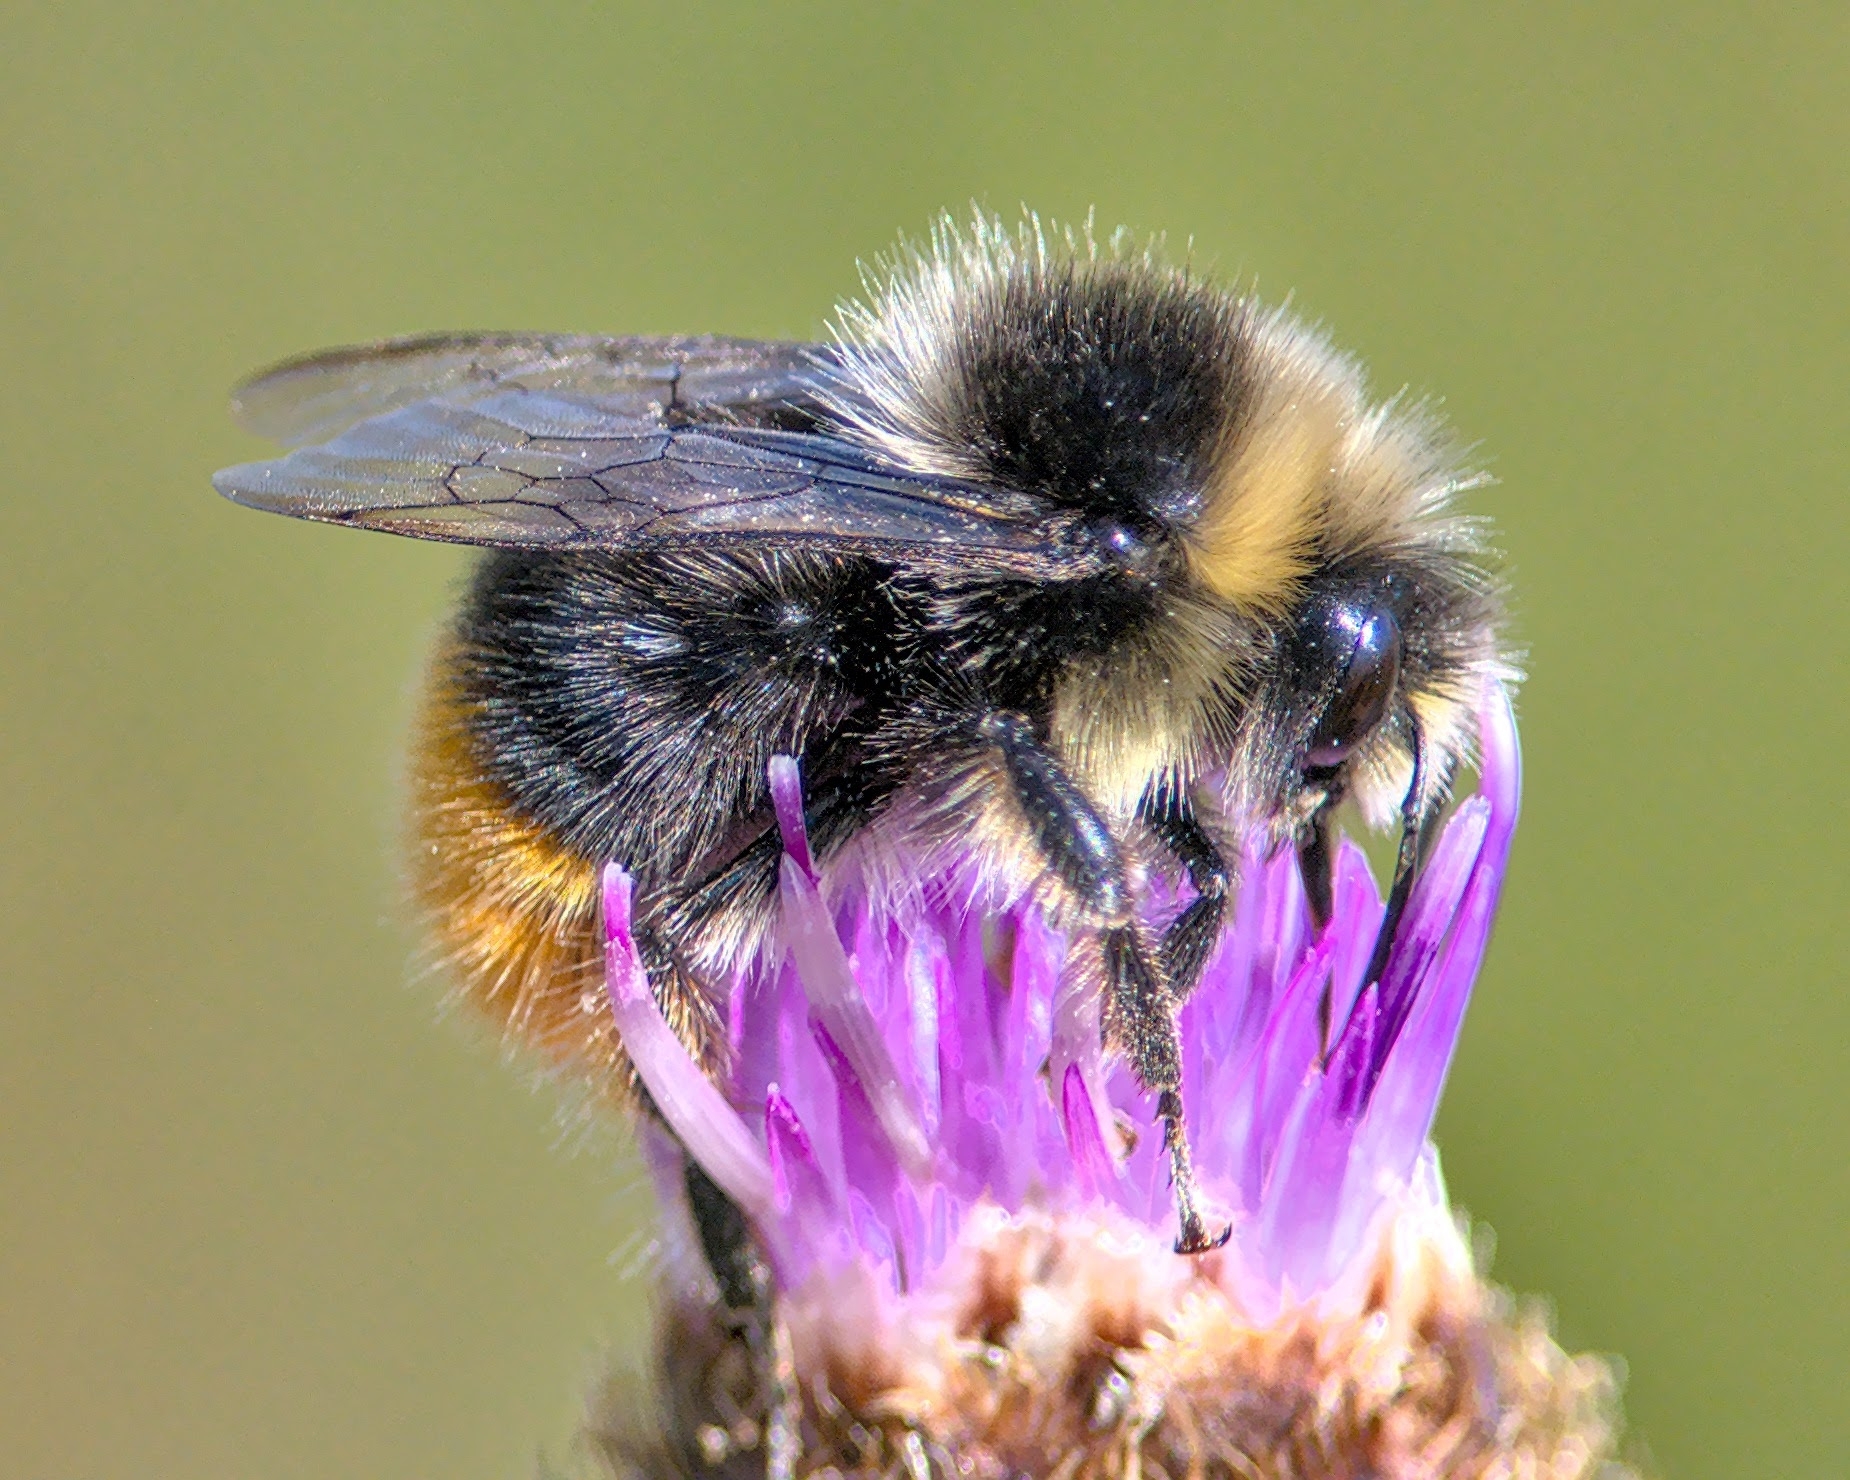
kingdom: Animalia
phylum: Arthropoda
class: Insecta
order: Hymenoptera
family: Apidae
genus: Bombus
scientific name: Bombus lapidarius
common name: Large red-tailed humble-bee
